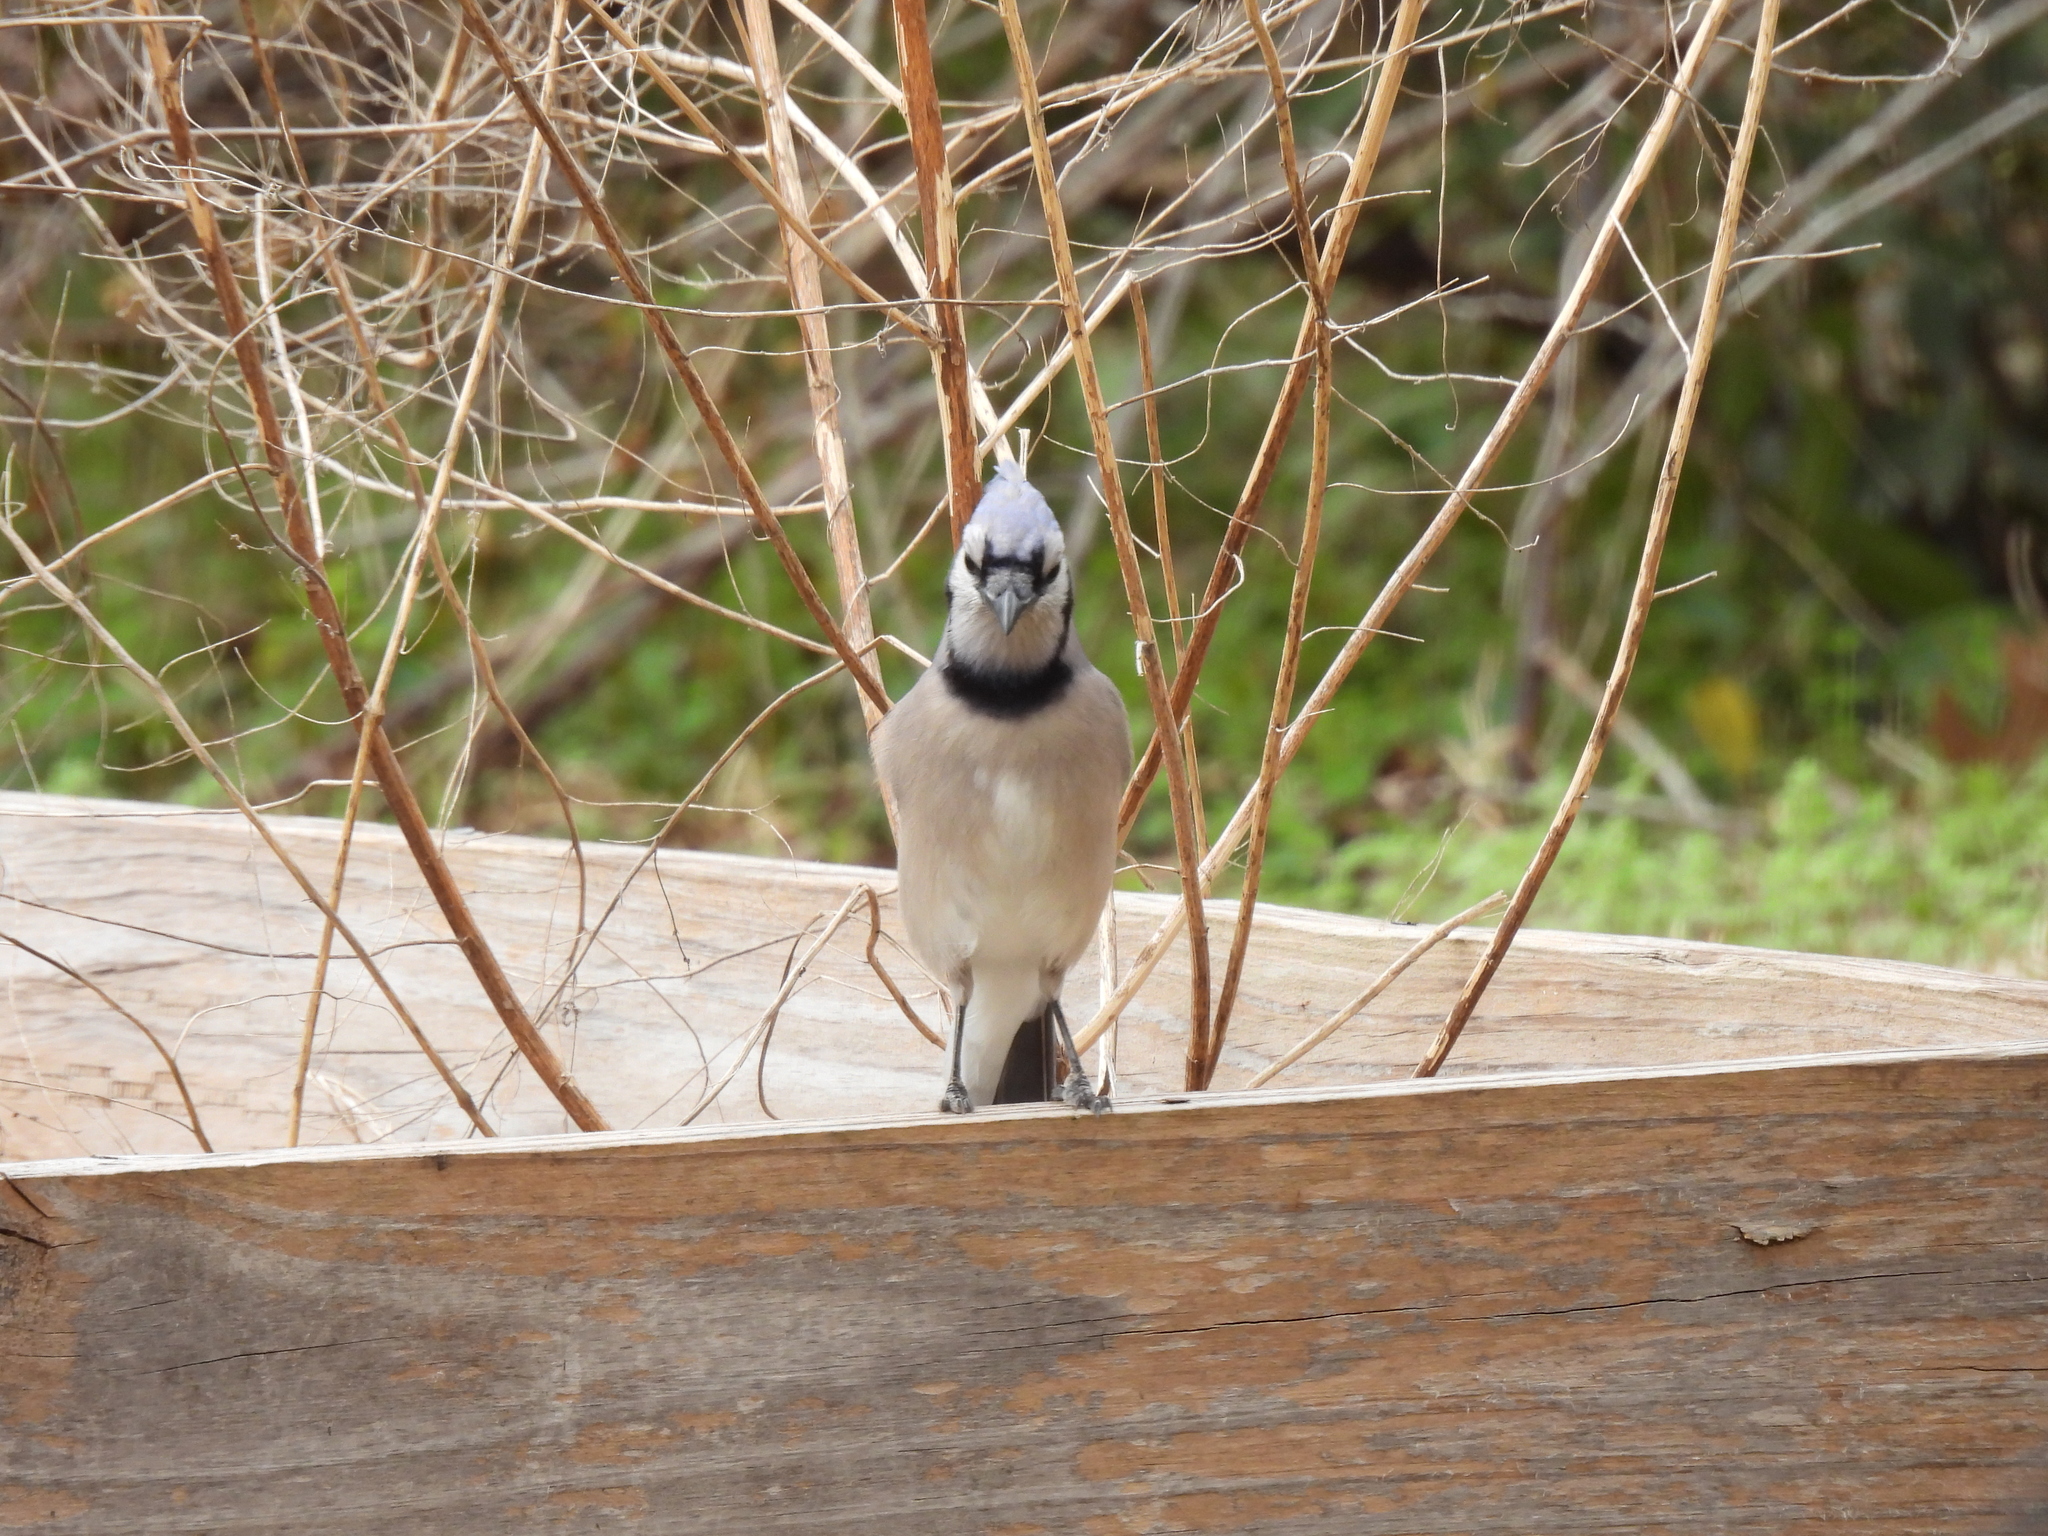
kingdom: Animalia
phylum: Chordata
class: Aves
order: Passeriformes
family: Corvidae
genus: Cyanocitta
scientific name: Cyanocitta cristata
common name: Blue jay
